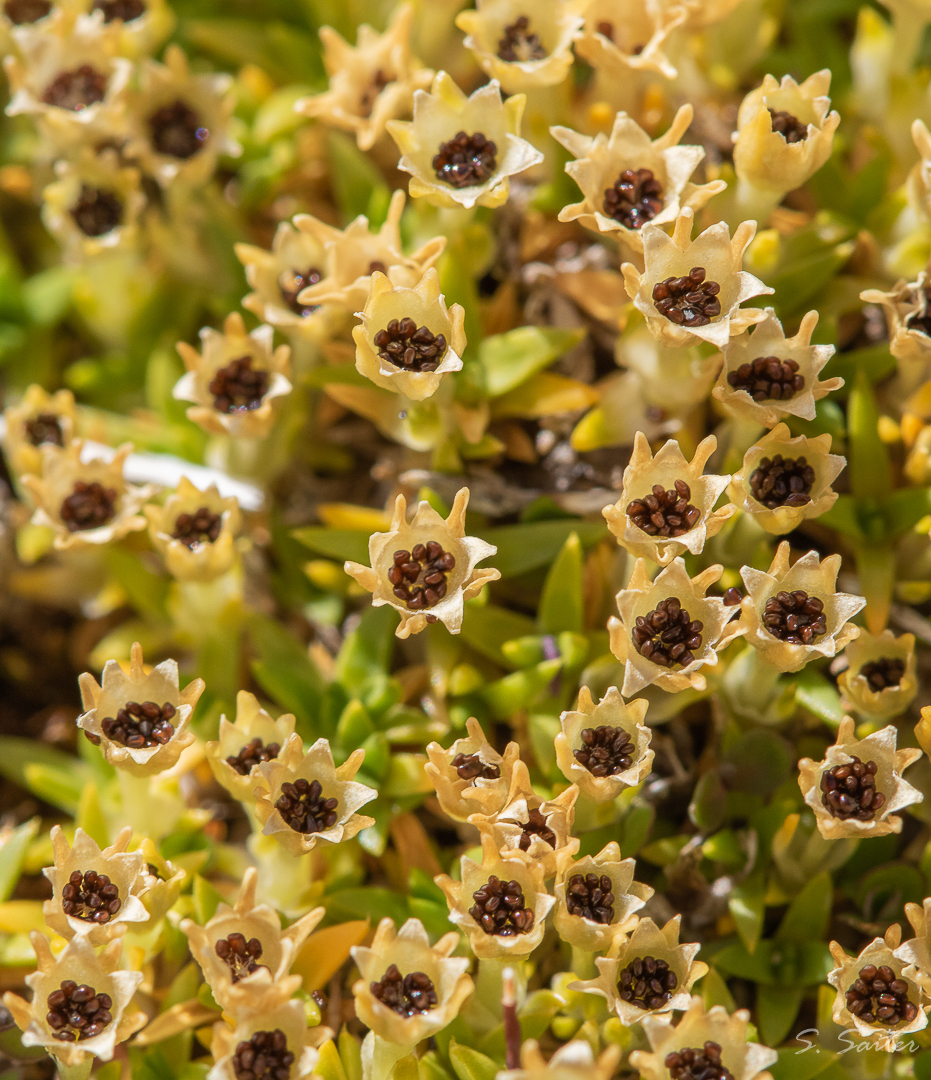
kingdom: Plantae
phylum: Tracheophyta
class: Magnoliopsida
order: Caryophyllales
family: Caryophyllaceae
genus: Colobanthus
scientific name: Colobanthus quitensis
